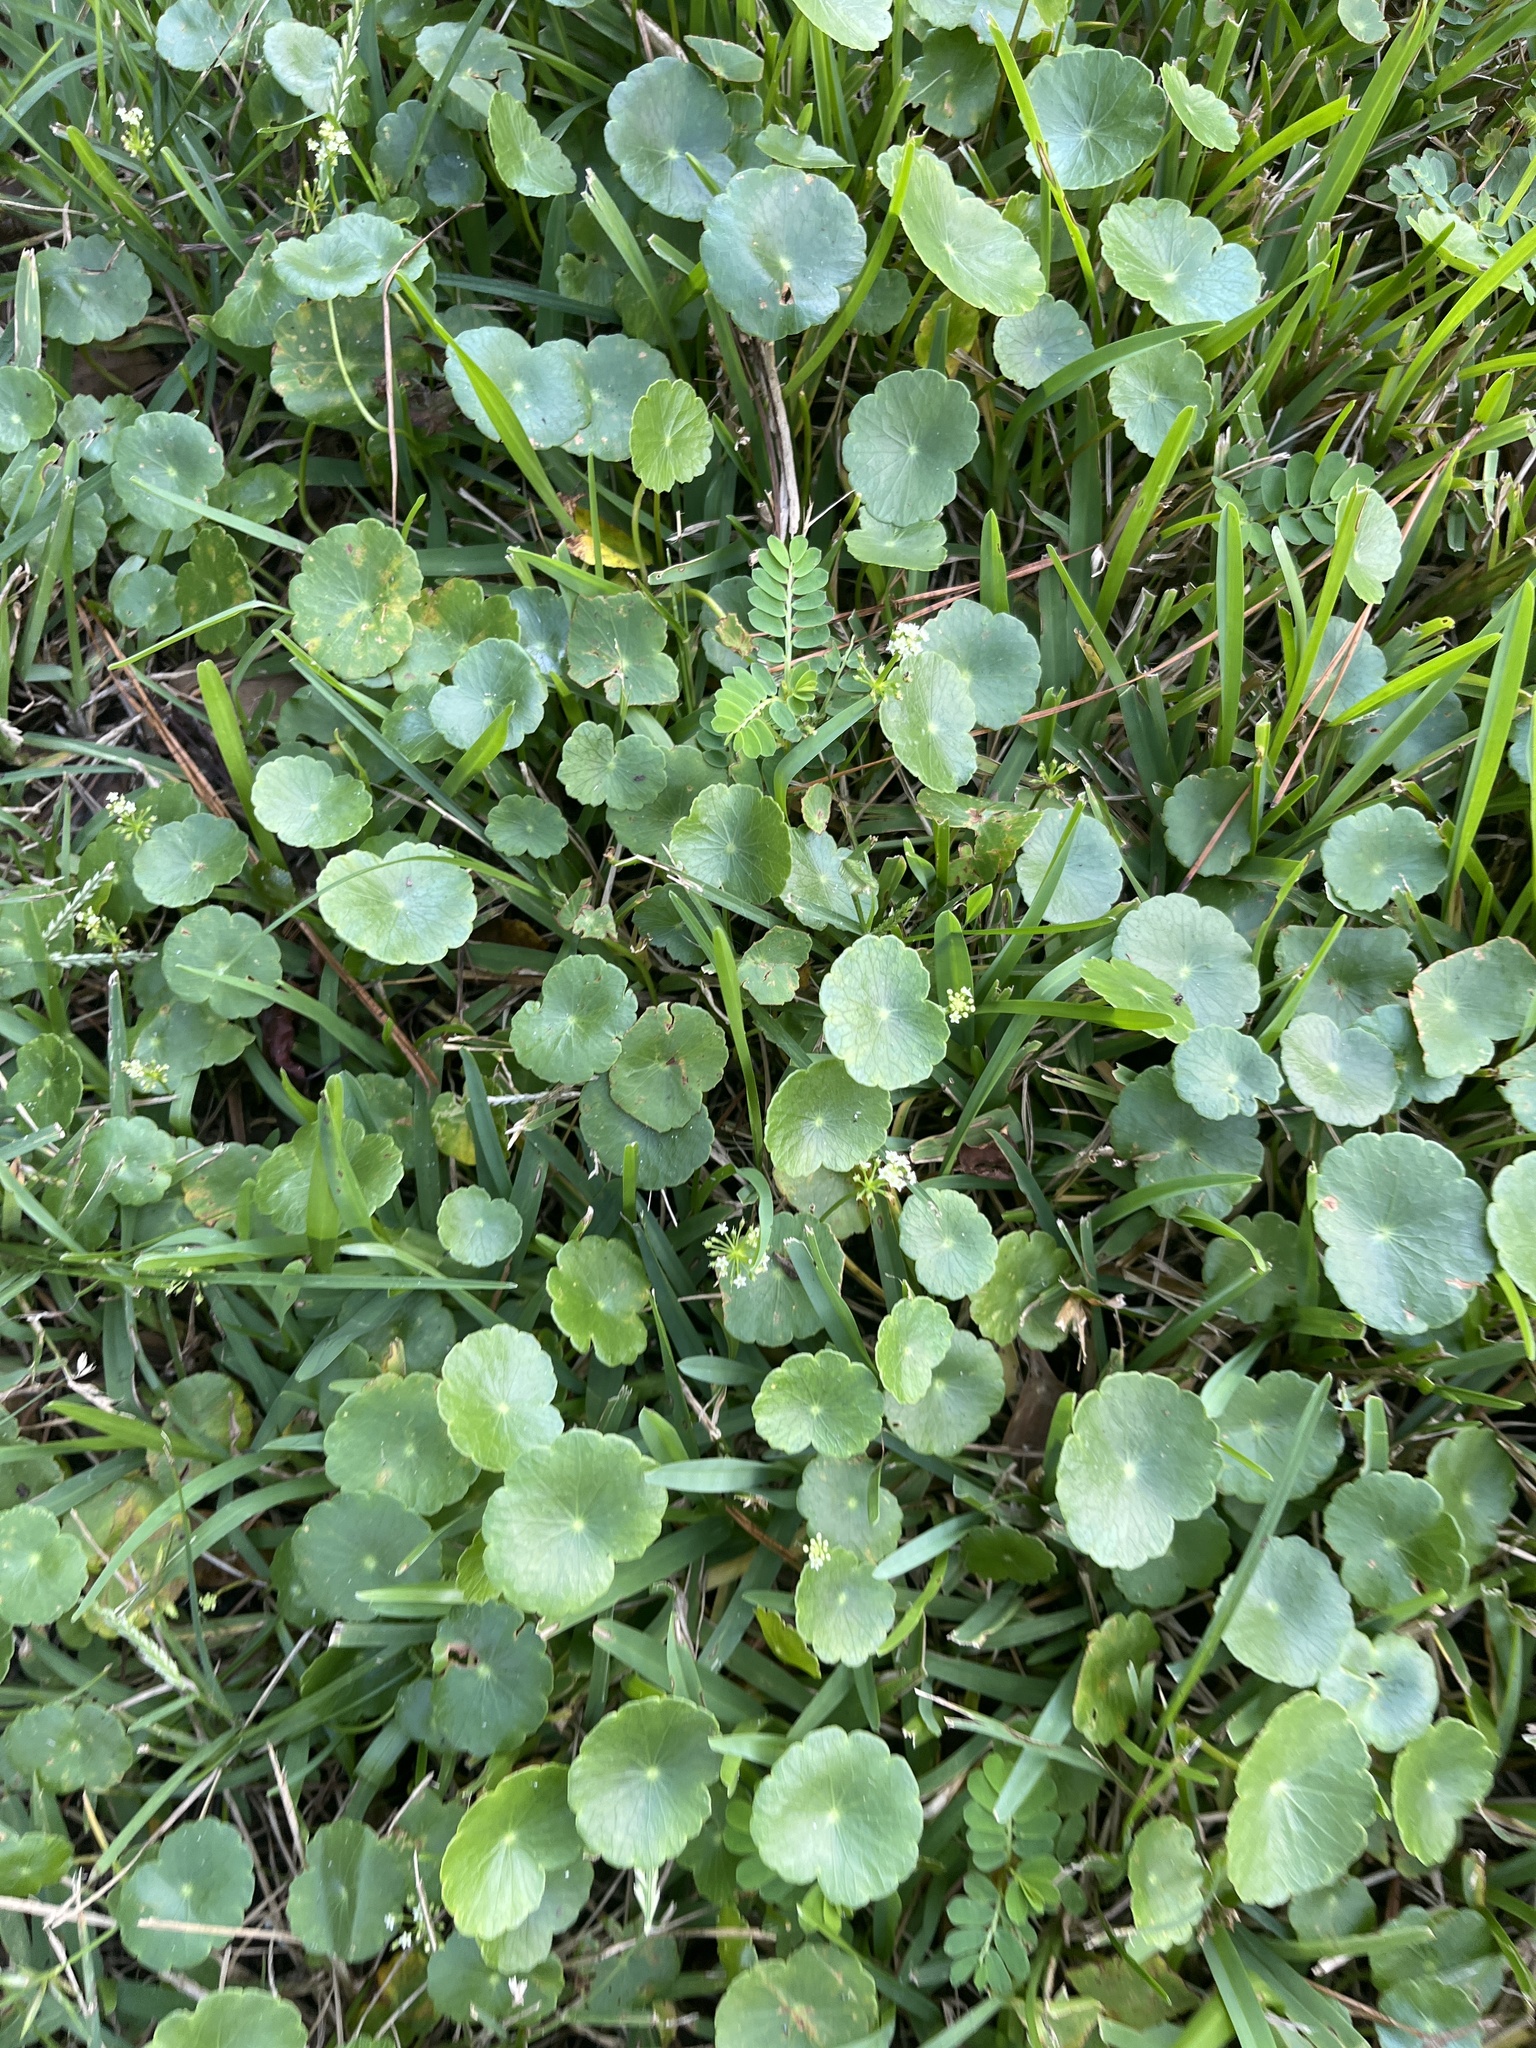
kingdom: Plantae
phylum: Tracheophyta
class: Magnoliopsida
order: Apiales
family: Araliaceae
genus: Hydrocotyle
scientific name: Hydrocotyle umbellata
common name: Water pennywort
